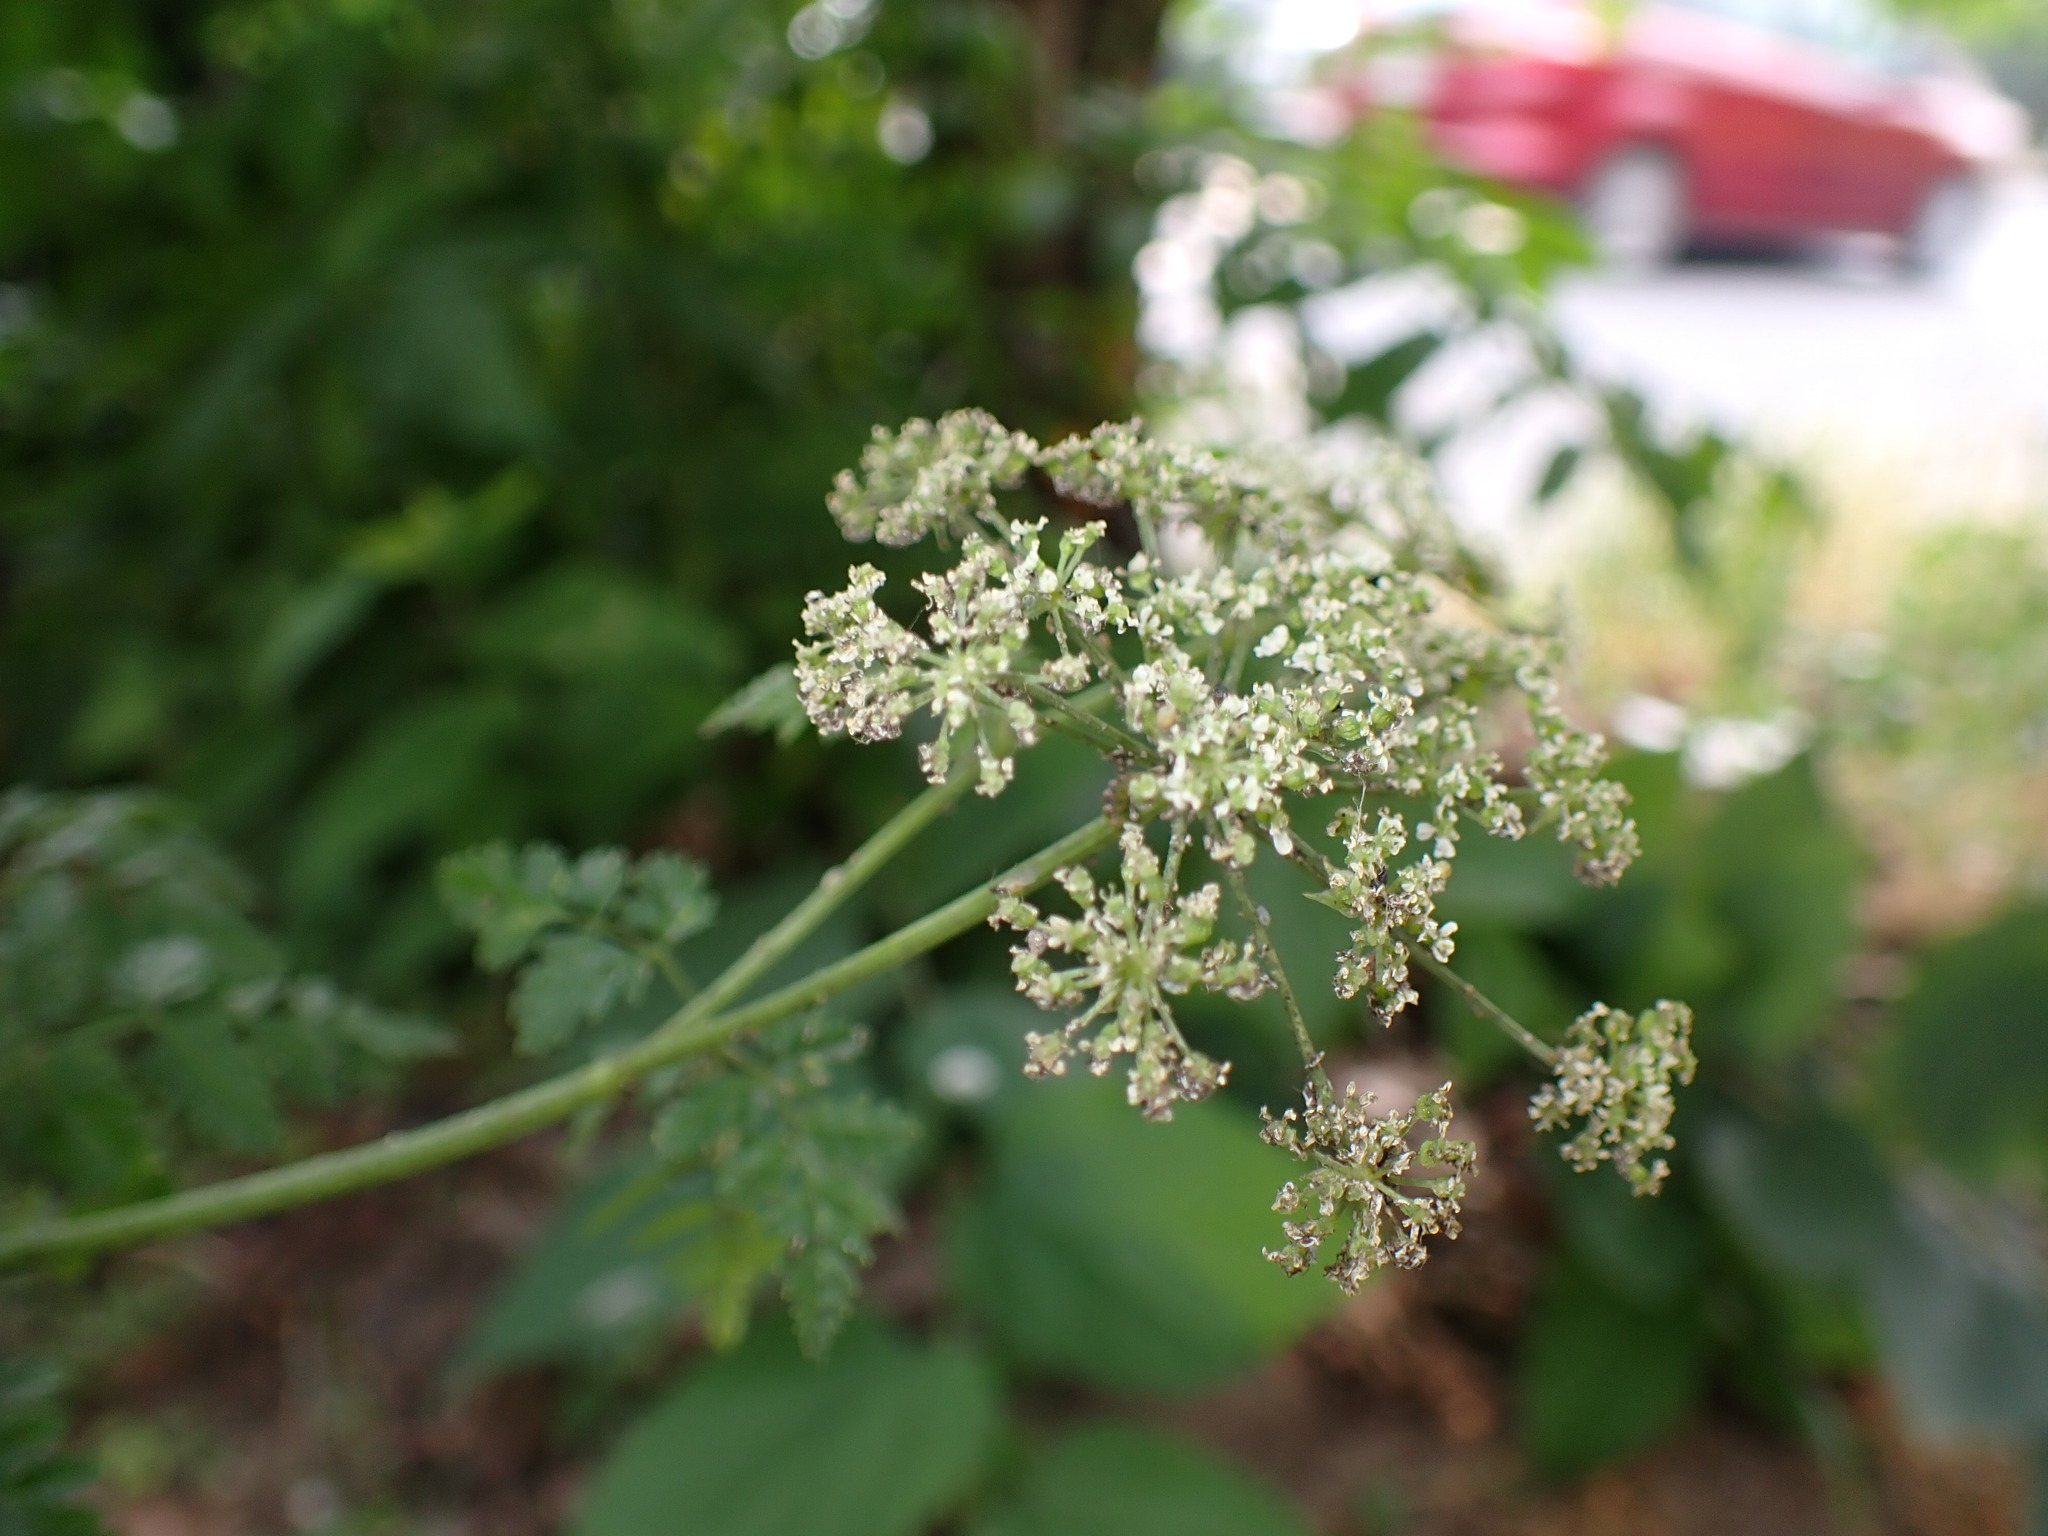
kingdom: Plantae
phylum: Tracheophyta
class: Magnoliopsida
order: Apiales
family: Apiaceae
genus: Conium
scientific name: Conium maculatum
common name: Hemlock
